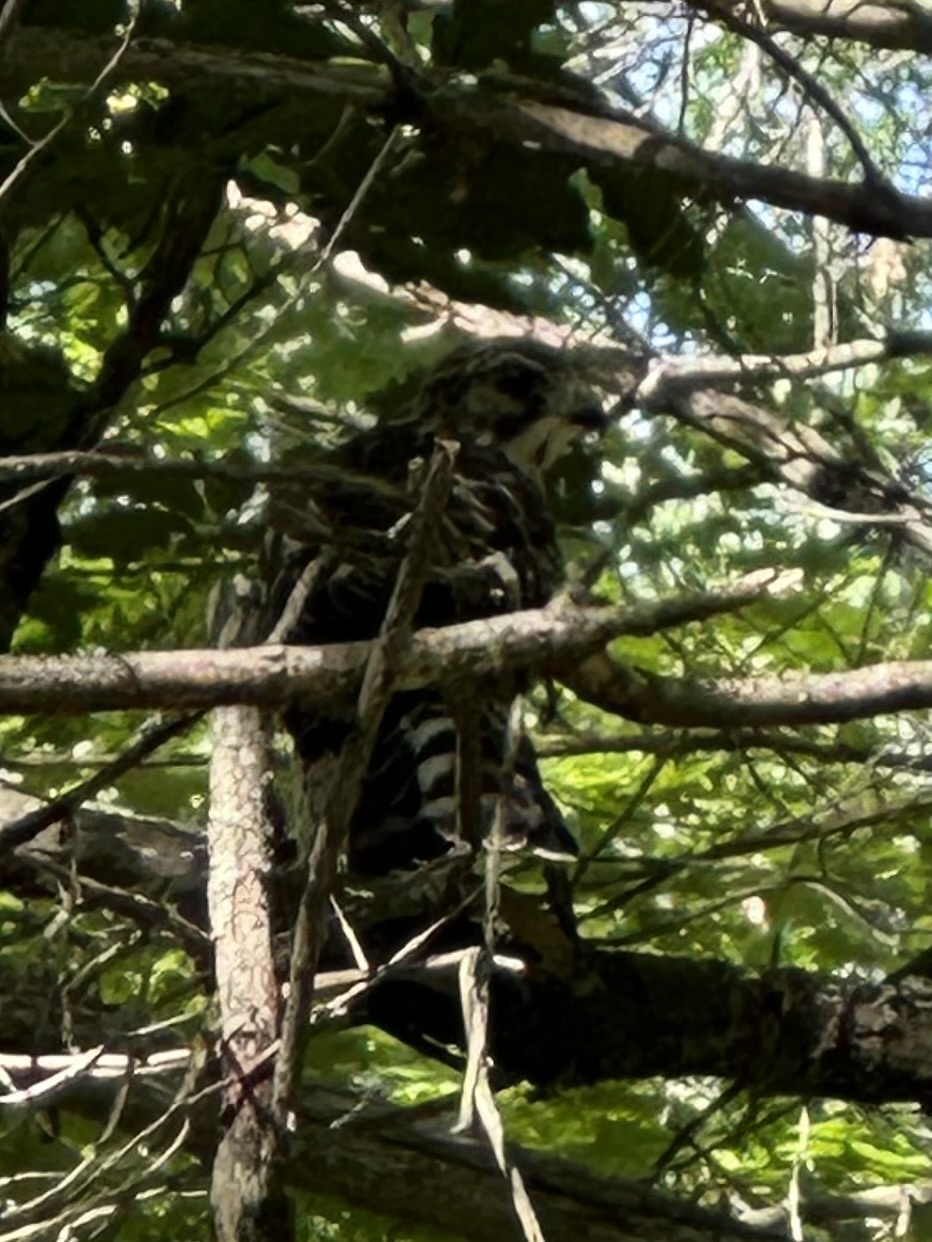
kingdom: Animalia
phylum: Chordata
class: Aves
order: Accipitriformes
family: Accipitridae
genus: Buteo
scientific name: Buteo platypterus
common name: Broad-winged hawk
